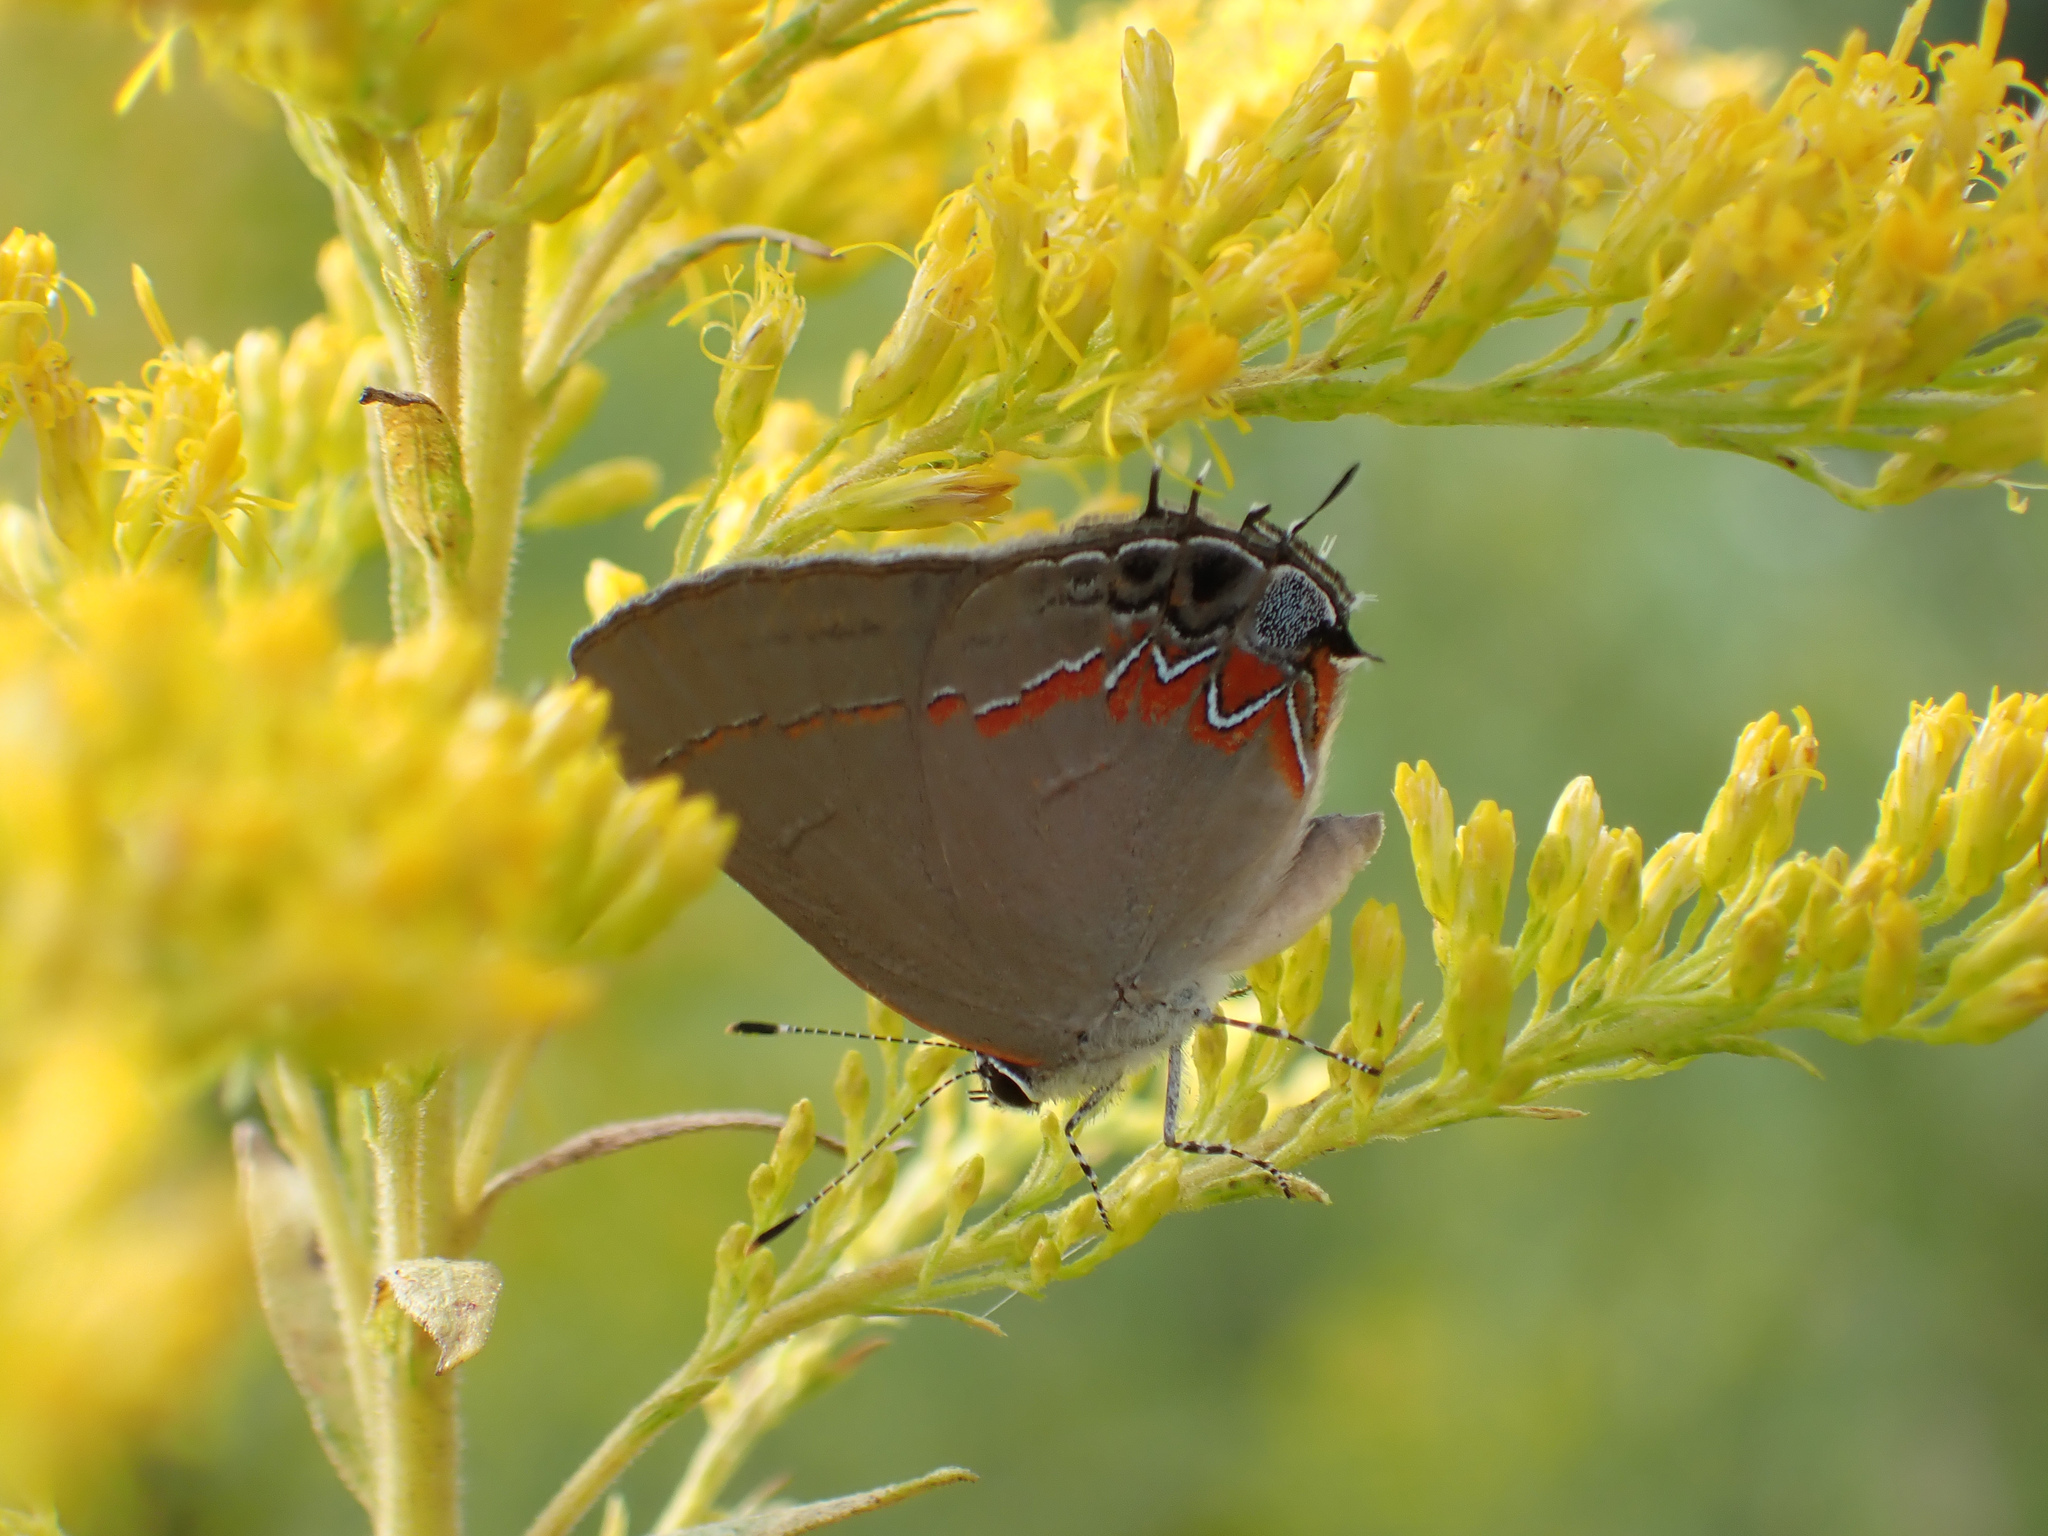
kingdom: Animalia
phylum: Arthropoda
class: Insecta
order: Lepidoptera
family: Lycaenidae
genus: Calycopis
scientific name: Calycopis cecrops
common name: Red-banded hairstreak
